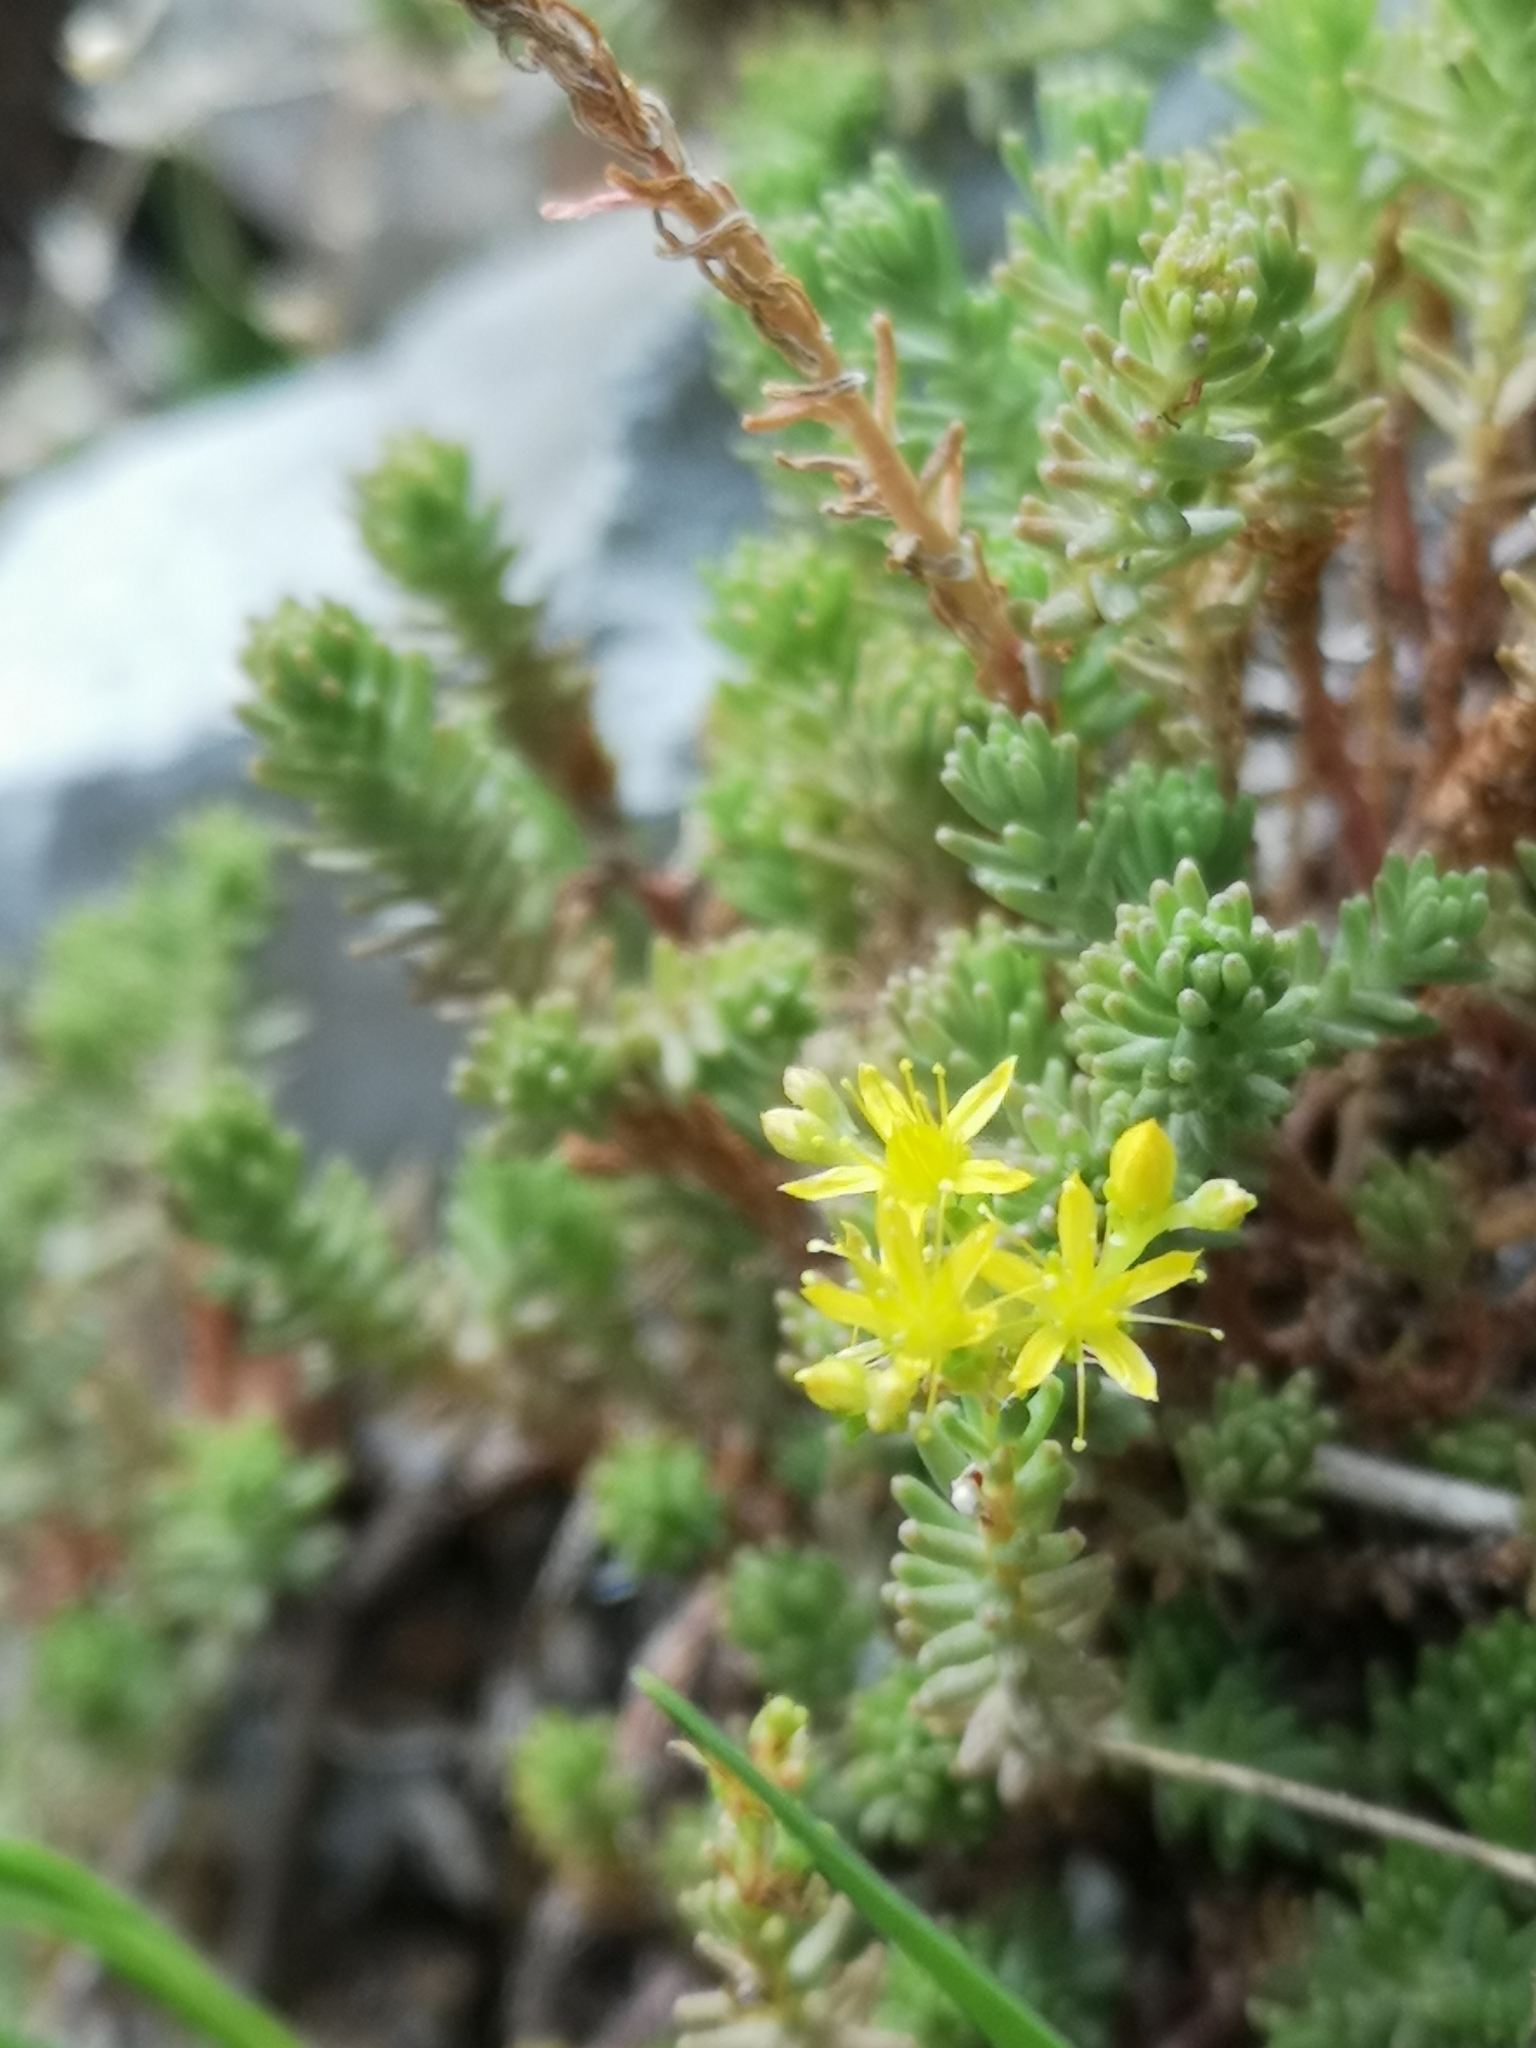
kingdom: Plantae
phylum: Tracheophyta
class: Magnoliopsida
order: Saxifragales
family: Crassulaceae
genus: Sedum
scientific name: Sedum sexangulare
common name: Tasteless stonecrop
